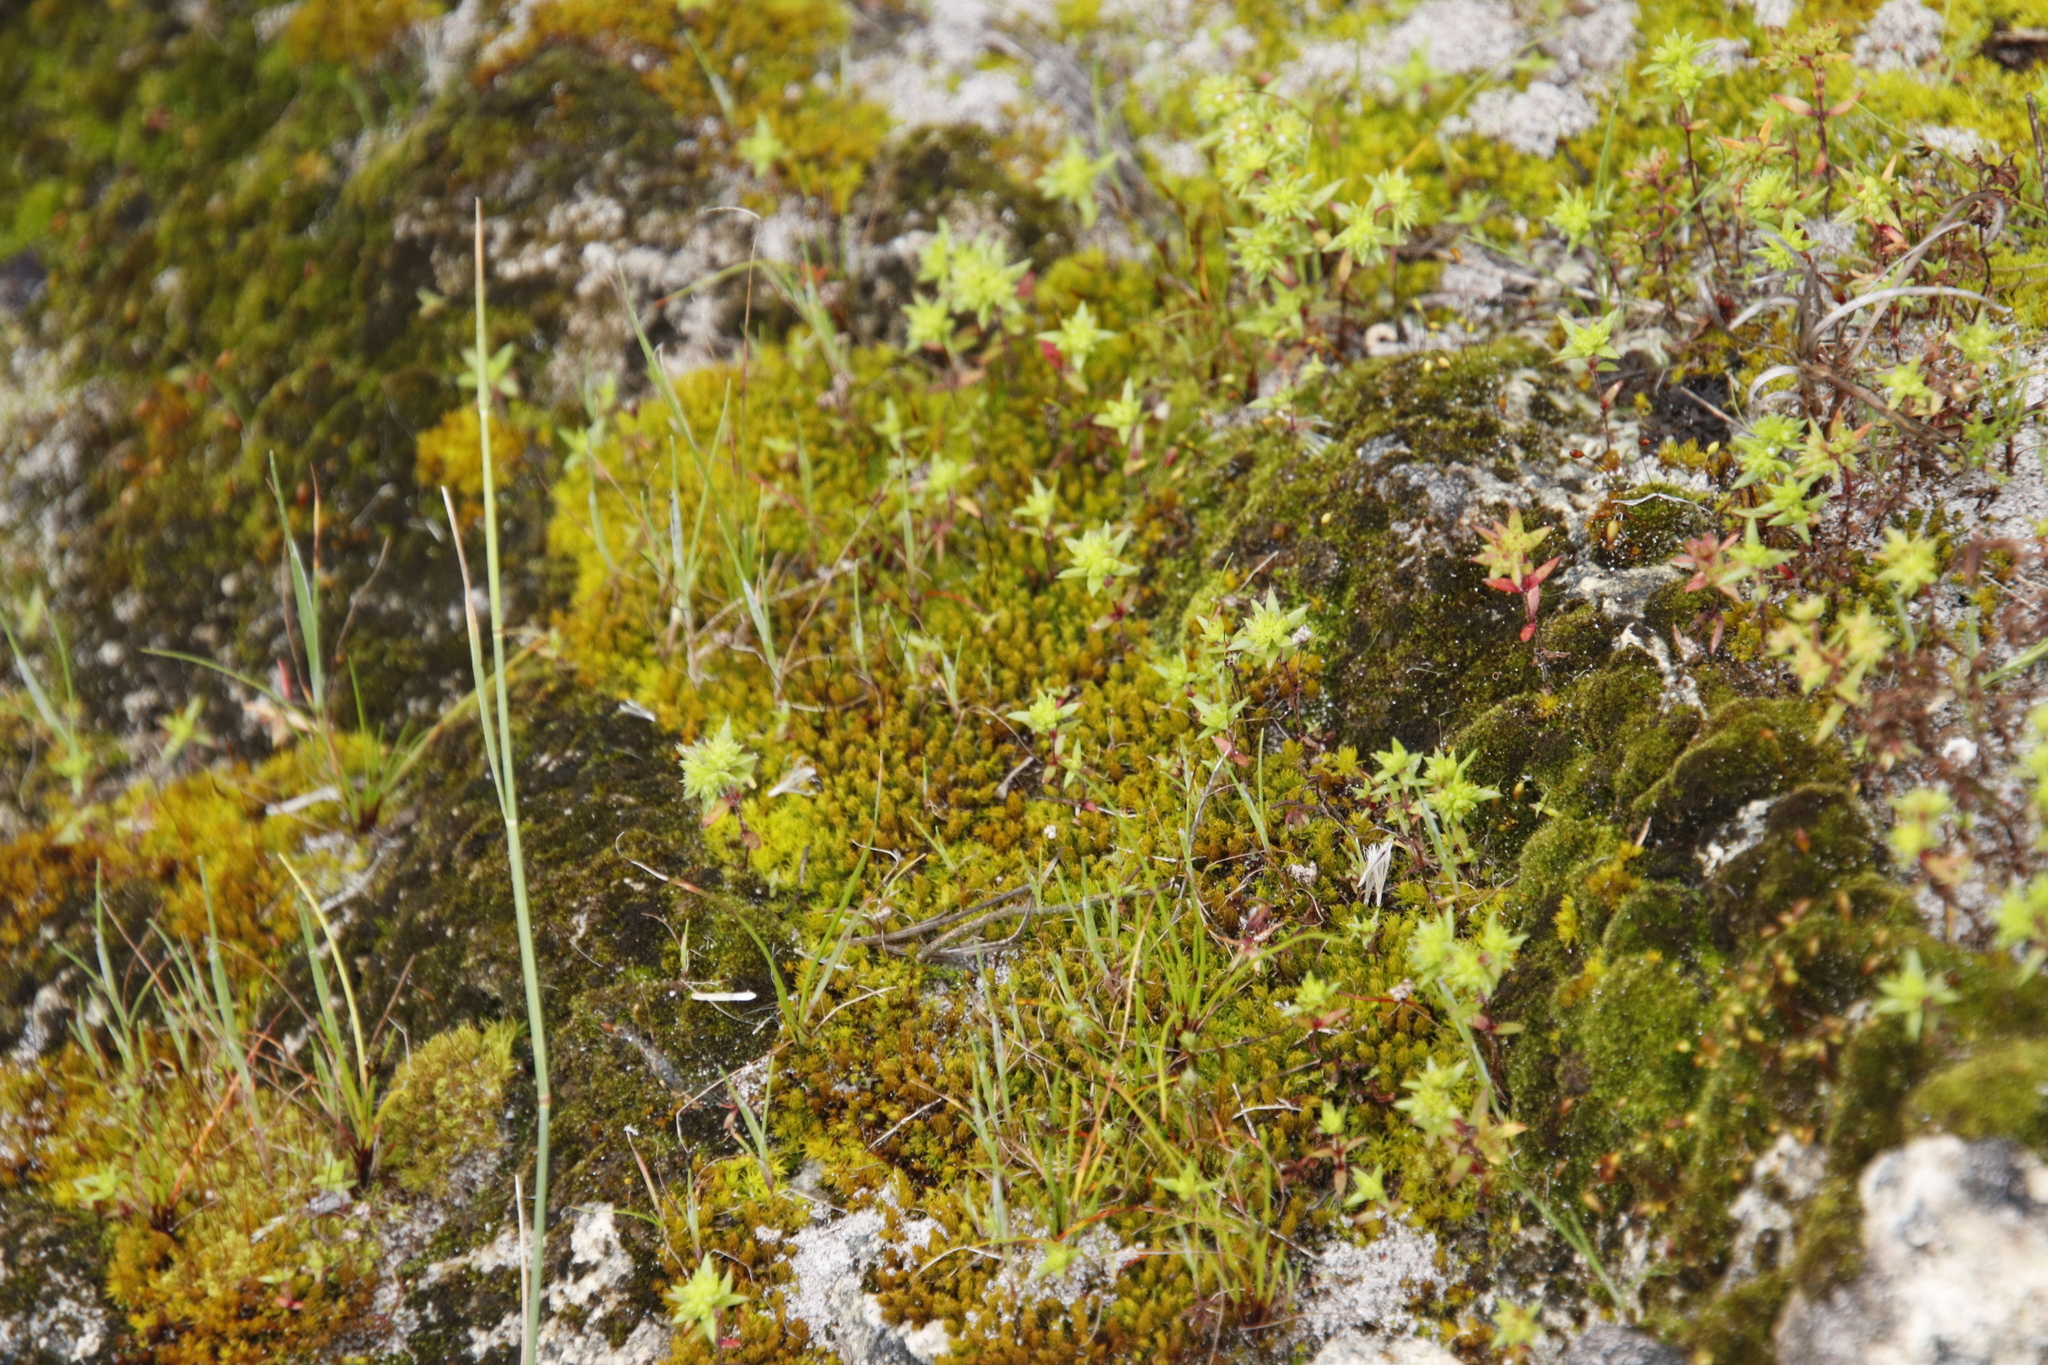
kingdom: Plantae
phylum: Bryophyta
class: Bryopsida
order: Pottiales
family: Pottiaceae
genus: Gertrudiella
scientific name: Gertrudiella xanthocarpa
